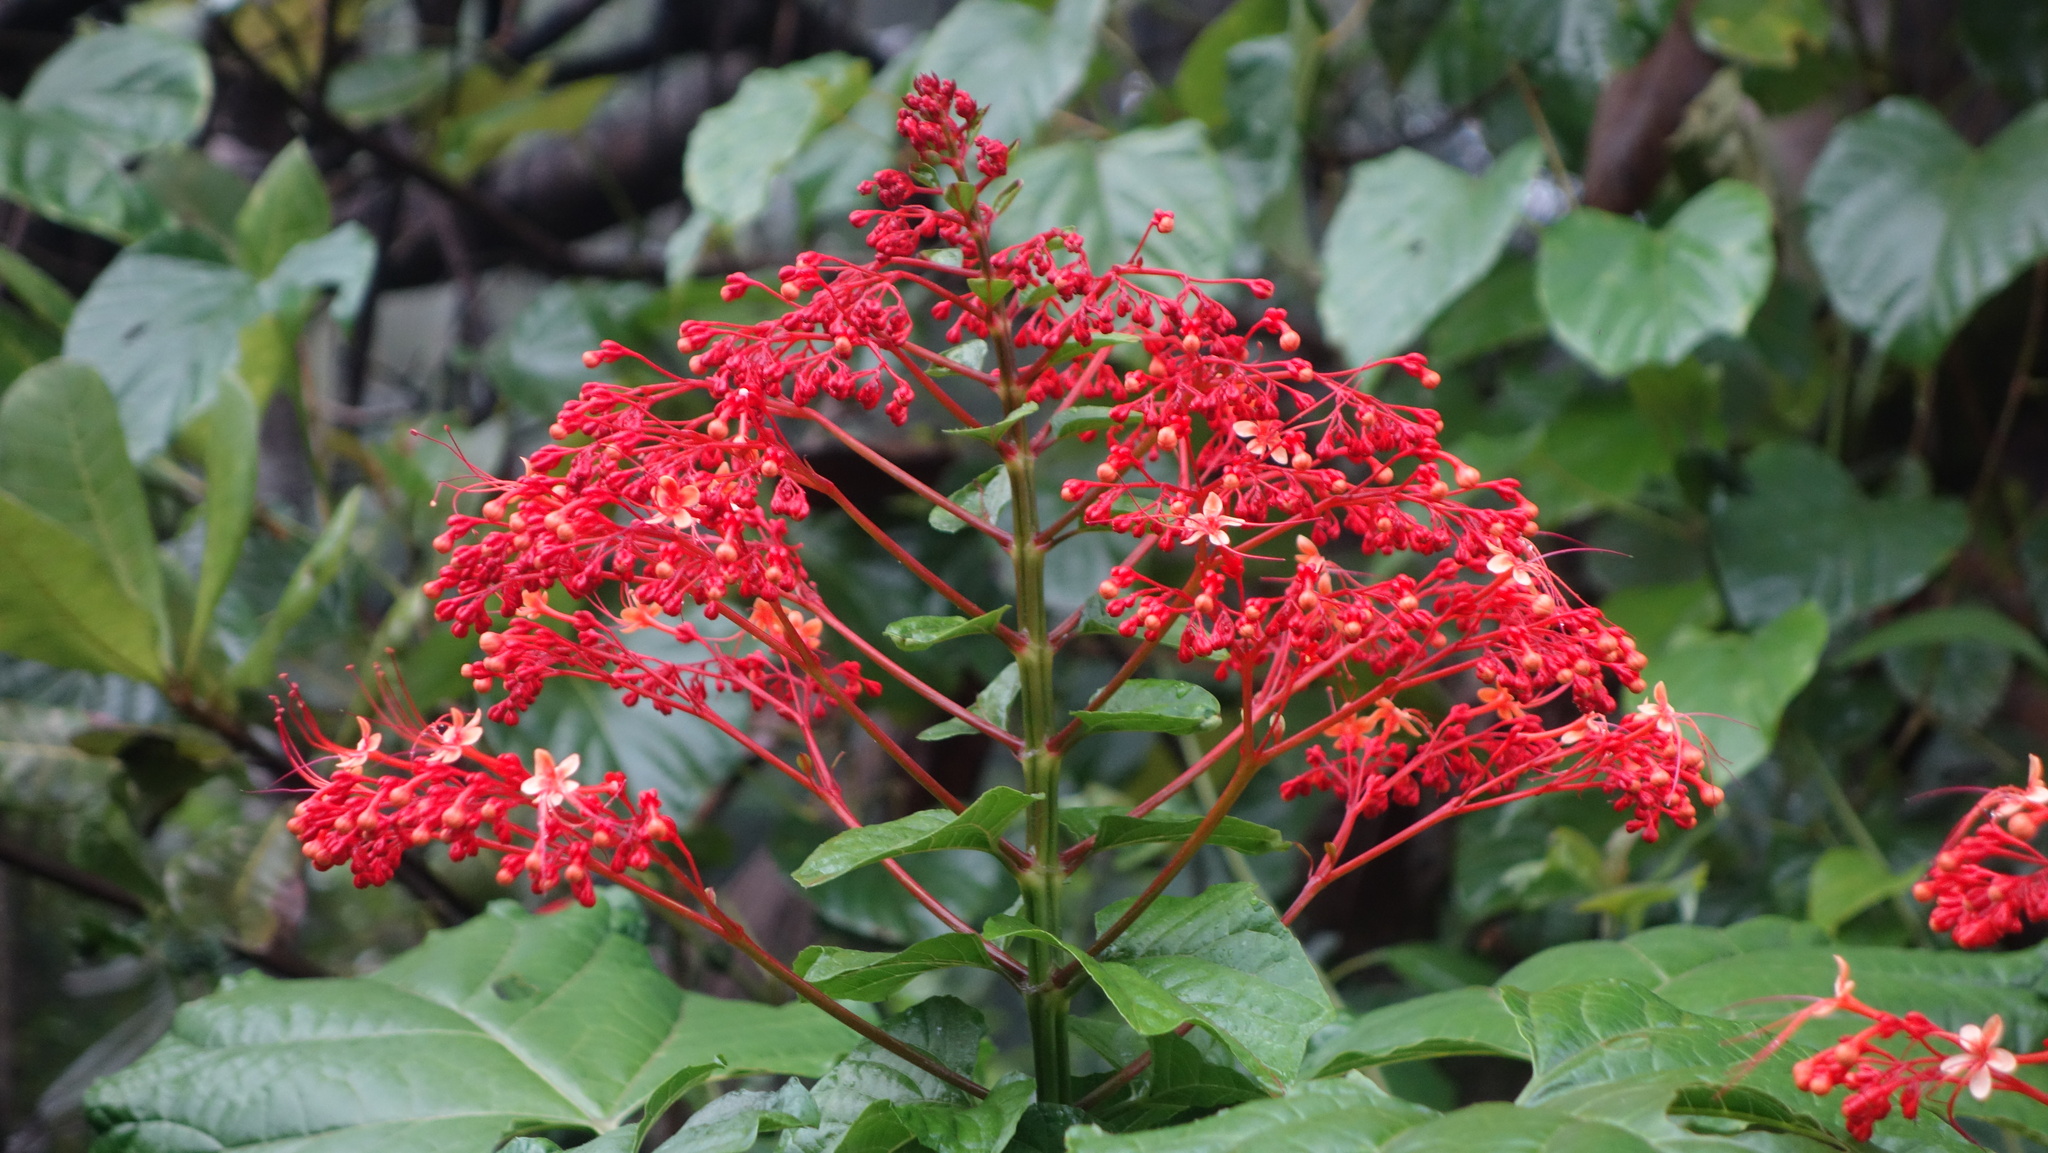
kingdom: Plantae
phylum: Tracheophyta
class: Magnoliopsida
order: Lamiales
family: Lamiaceae
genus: Clerodendrum
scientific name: Clerodendrum paniculatum
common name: Pagoda-flower
